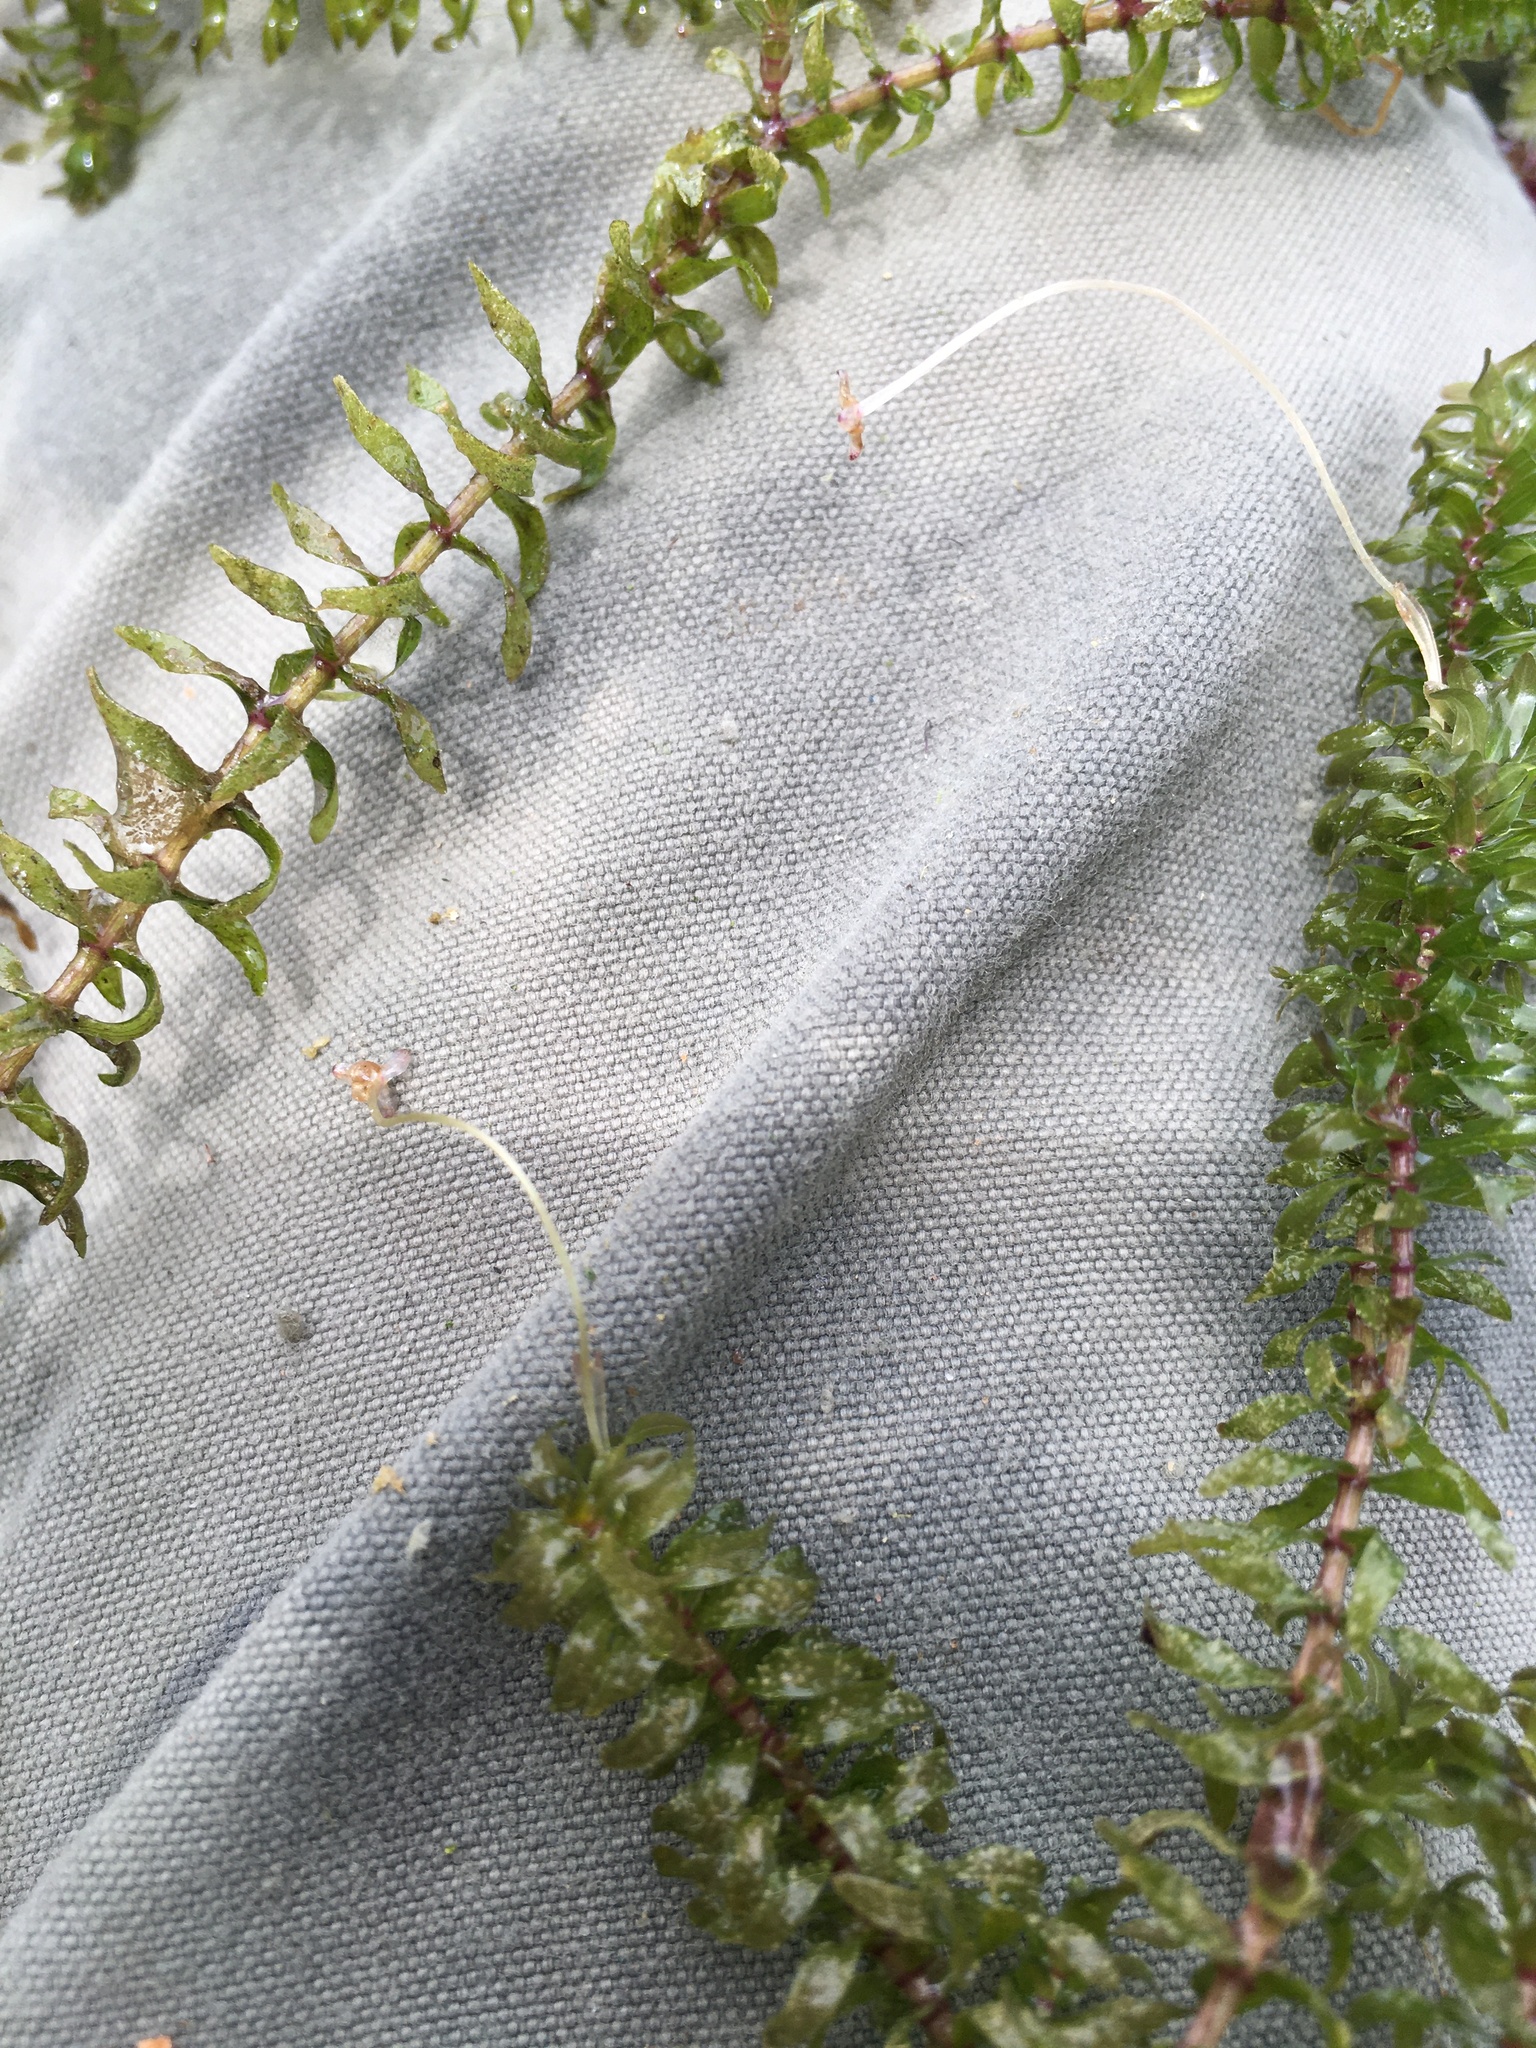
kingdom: Plantae
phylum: Tracheophyta
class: Liliopsida
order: Alismatales
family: Hydrocharitaceae
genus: Elodea
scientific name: Elodea canadensis
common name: Canadian waterweed
